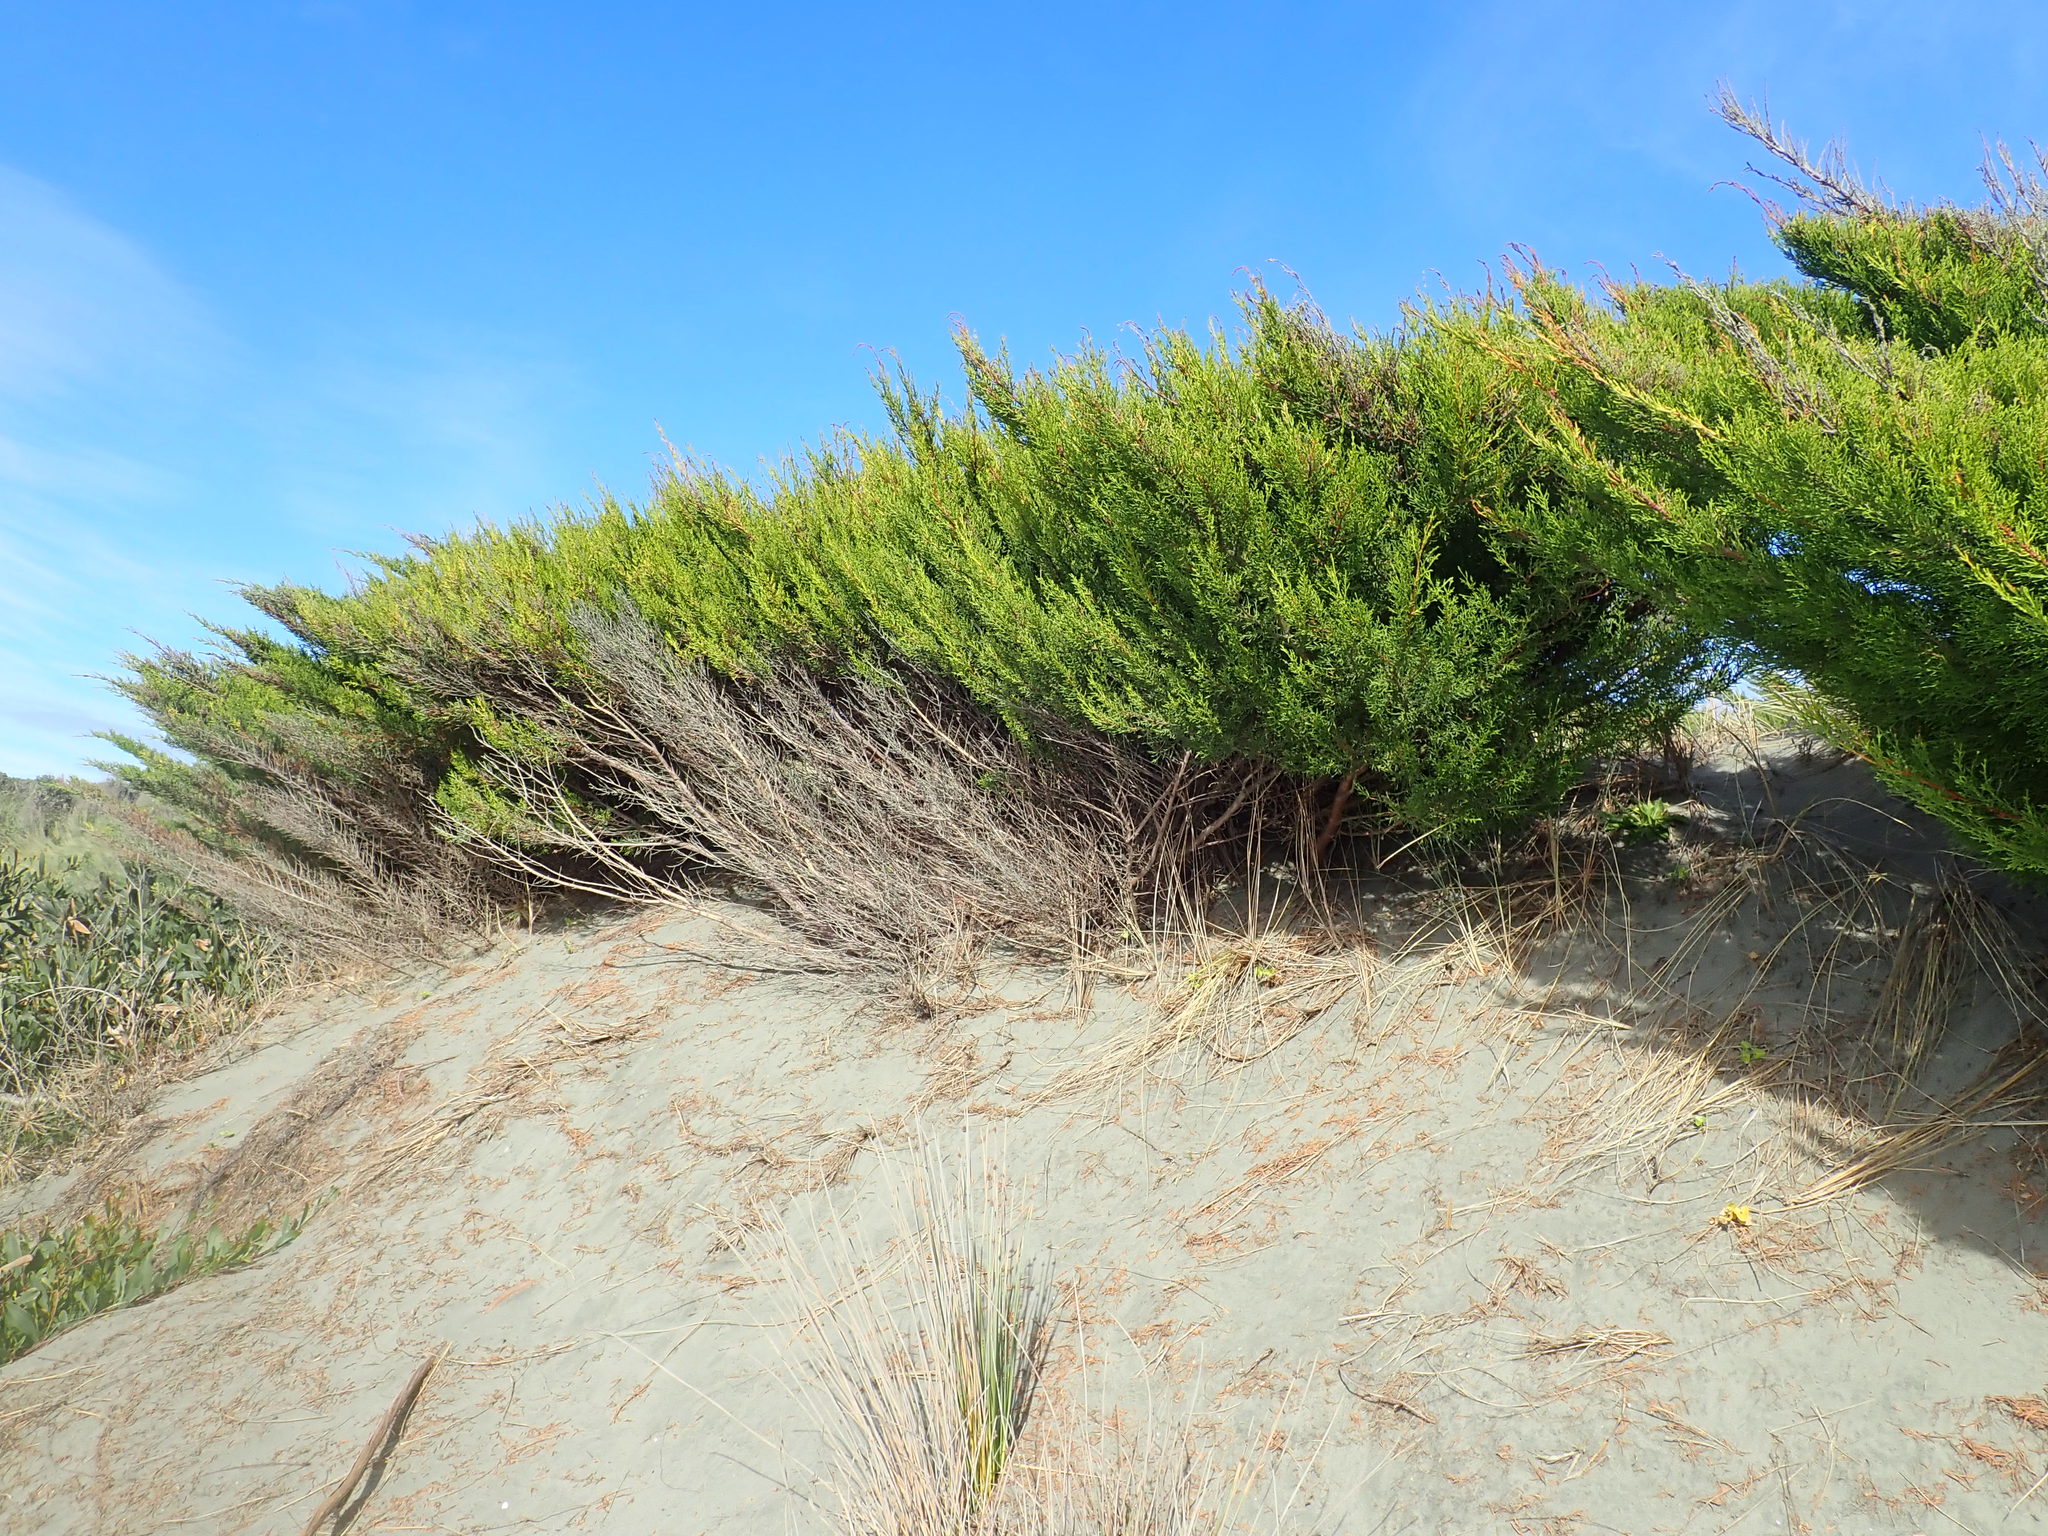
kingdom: Plantae
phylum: Tracheophyta
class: Pinopsida
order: Pinales
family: Cupressaceae
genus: Cupressus
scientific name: Cupressus macrocarpa
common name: Monterey cypress
